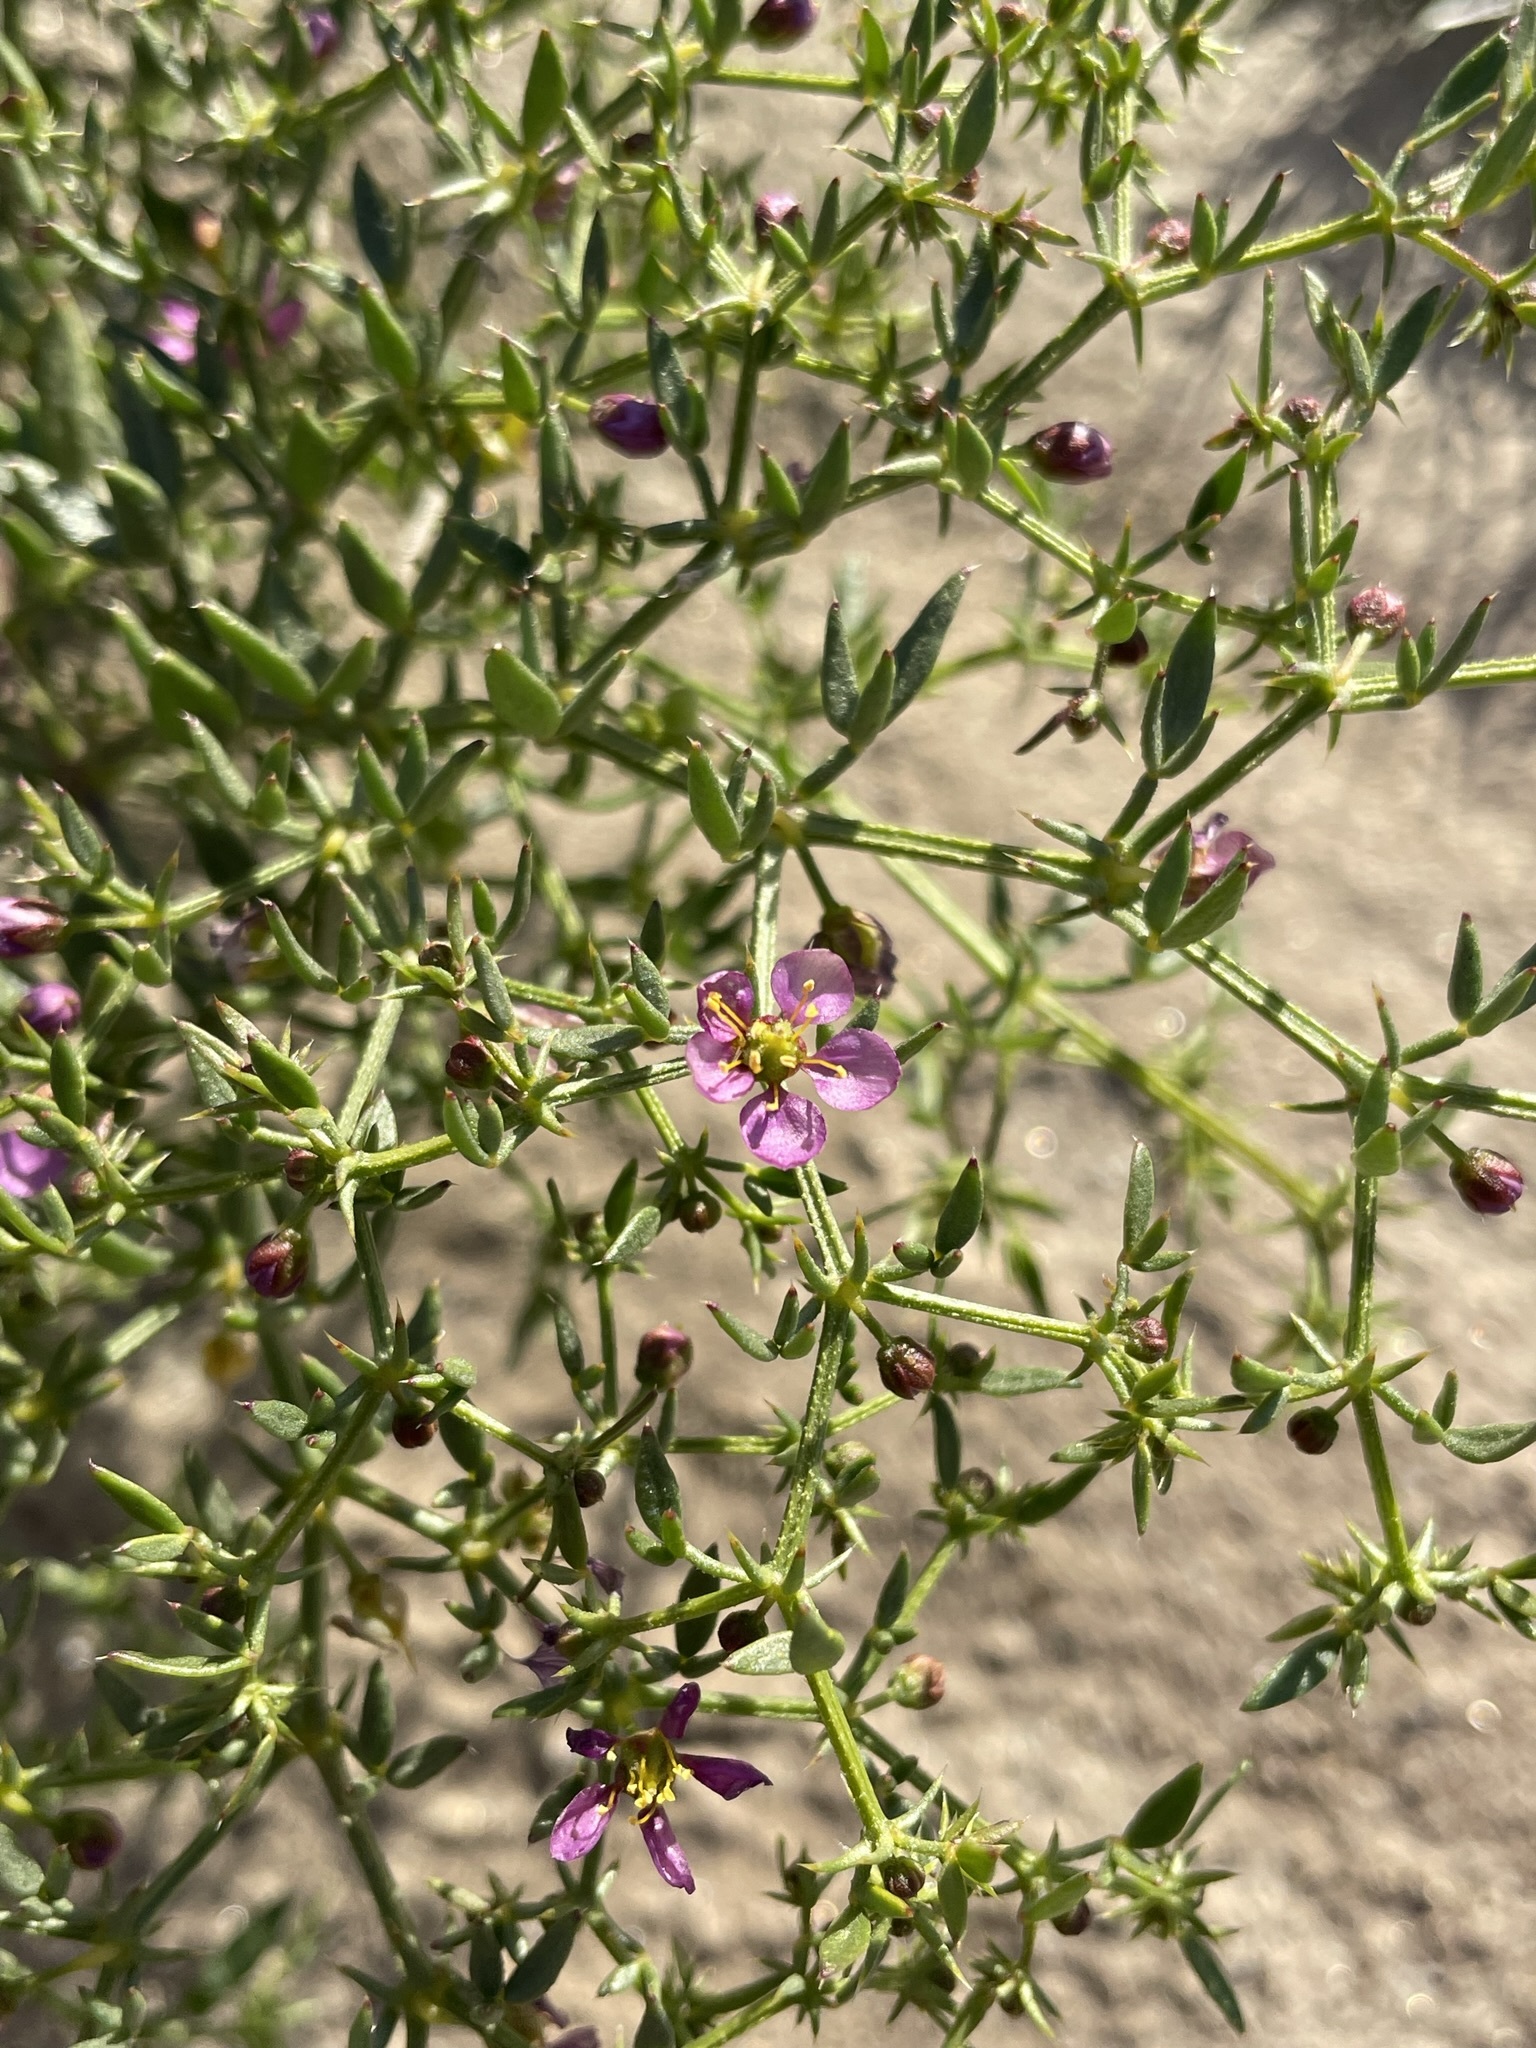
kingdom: Plantae
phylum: Tracheophyta
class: Magnoliopsida
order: Zygophyllales
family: Zygophyllaceae
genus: Fagonia
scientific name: Fagonia laevis
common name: California fagonbush
